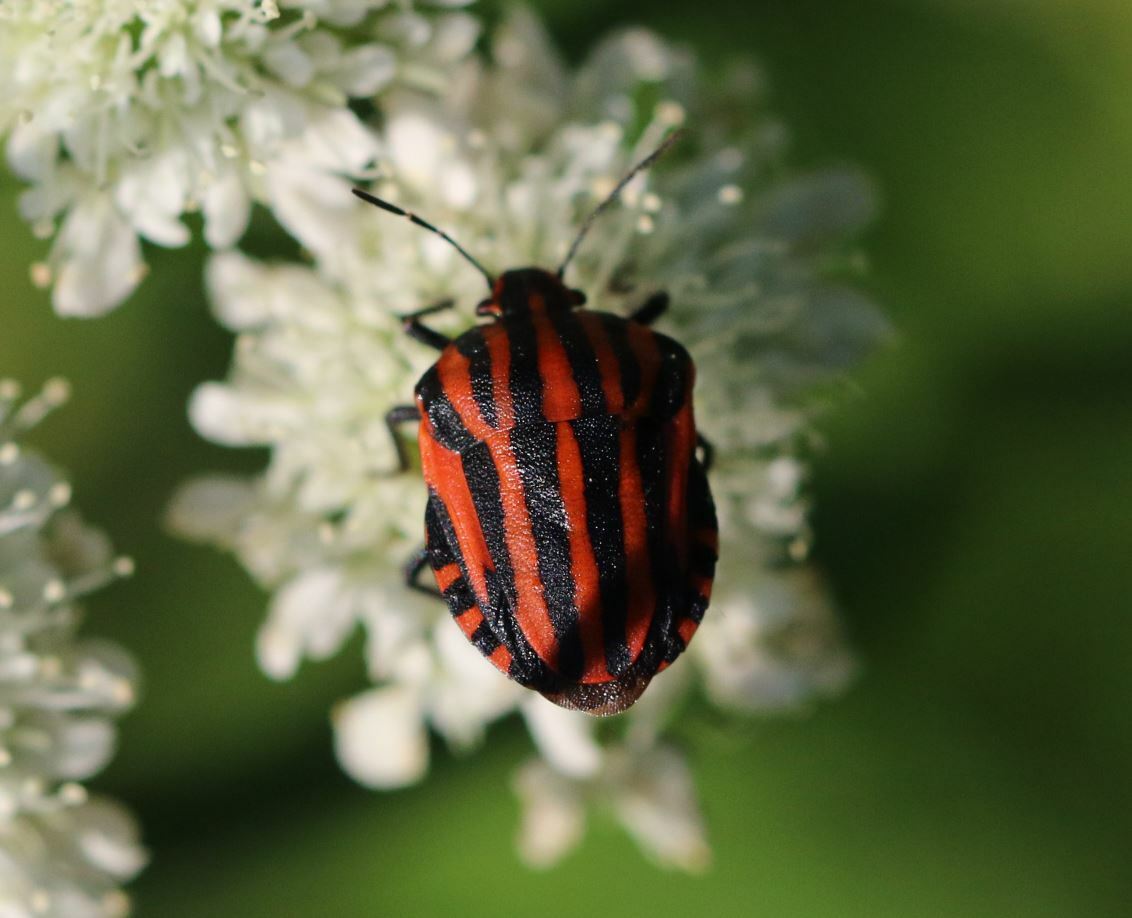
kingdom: Animalia
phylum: Arthropoda
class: Insecta
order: Hemiptera
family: Pentatomidae
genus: Graphosoma
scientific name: Graphosoma italicum
